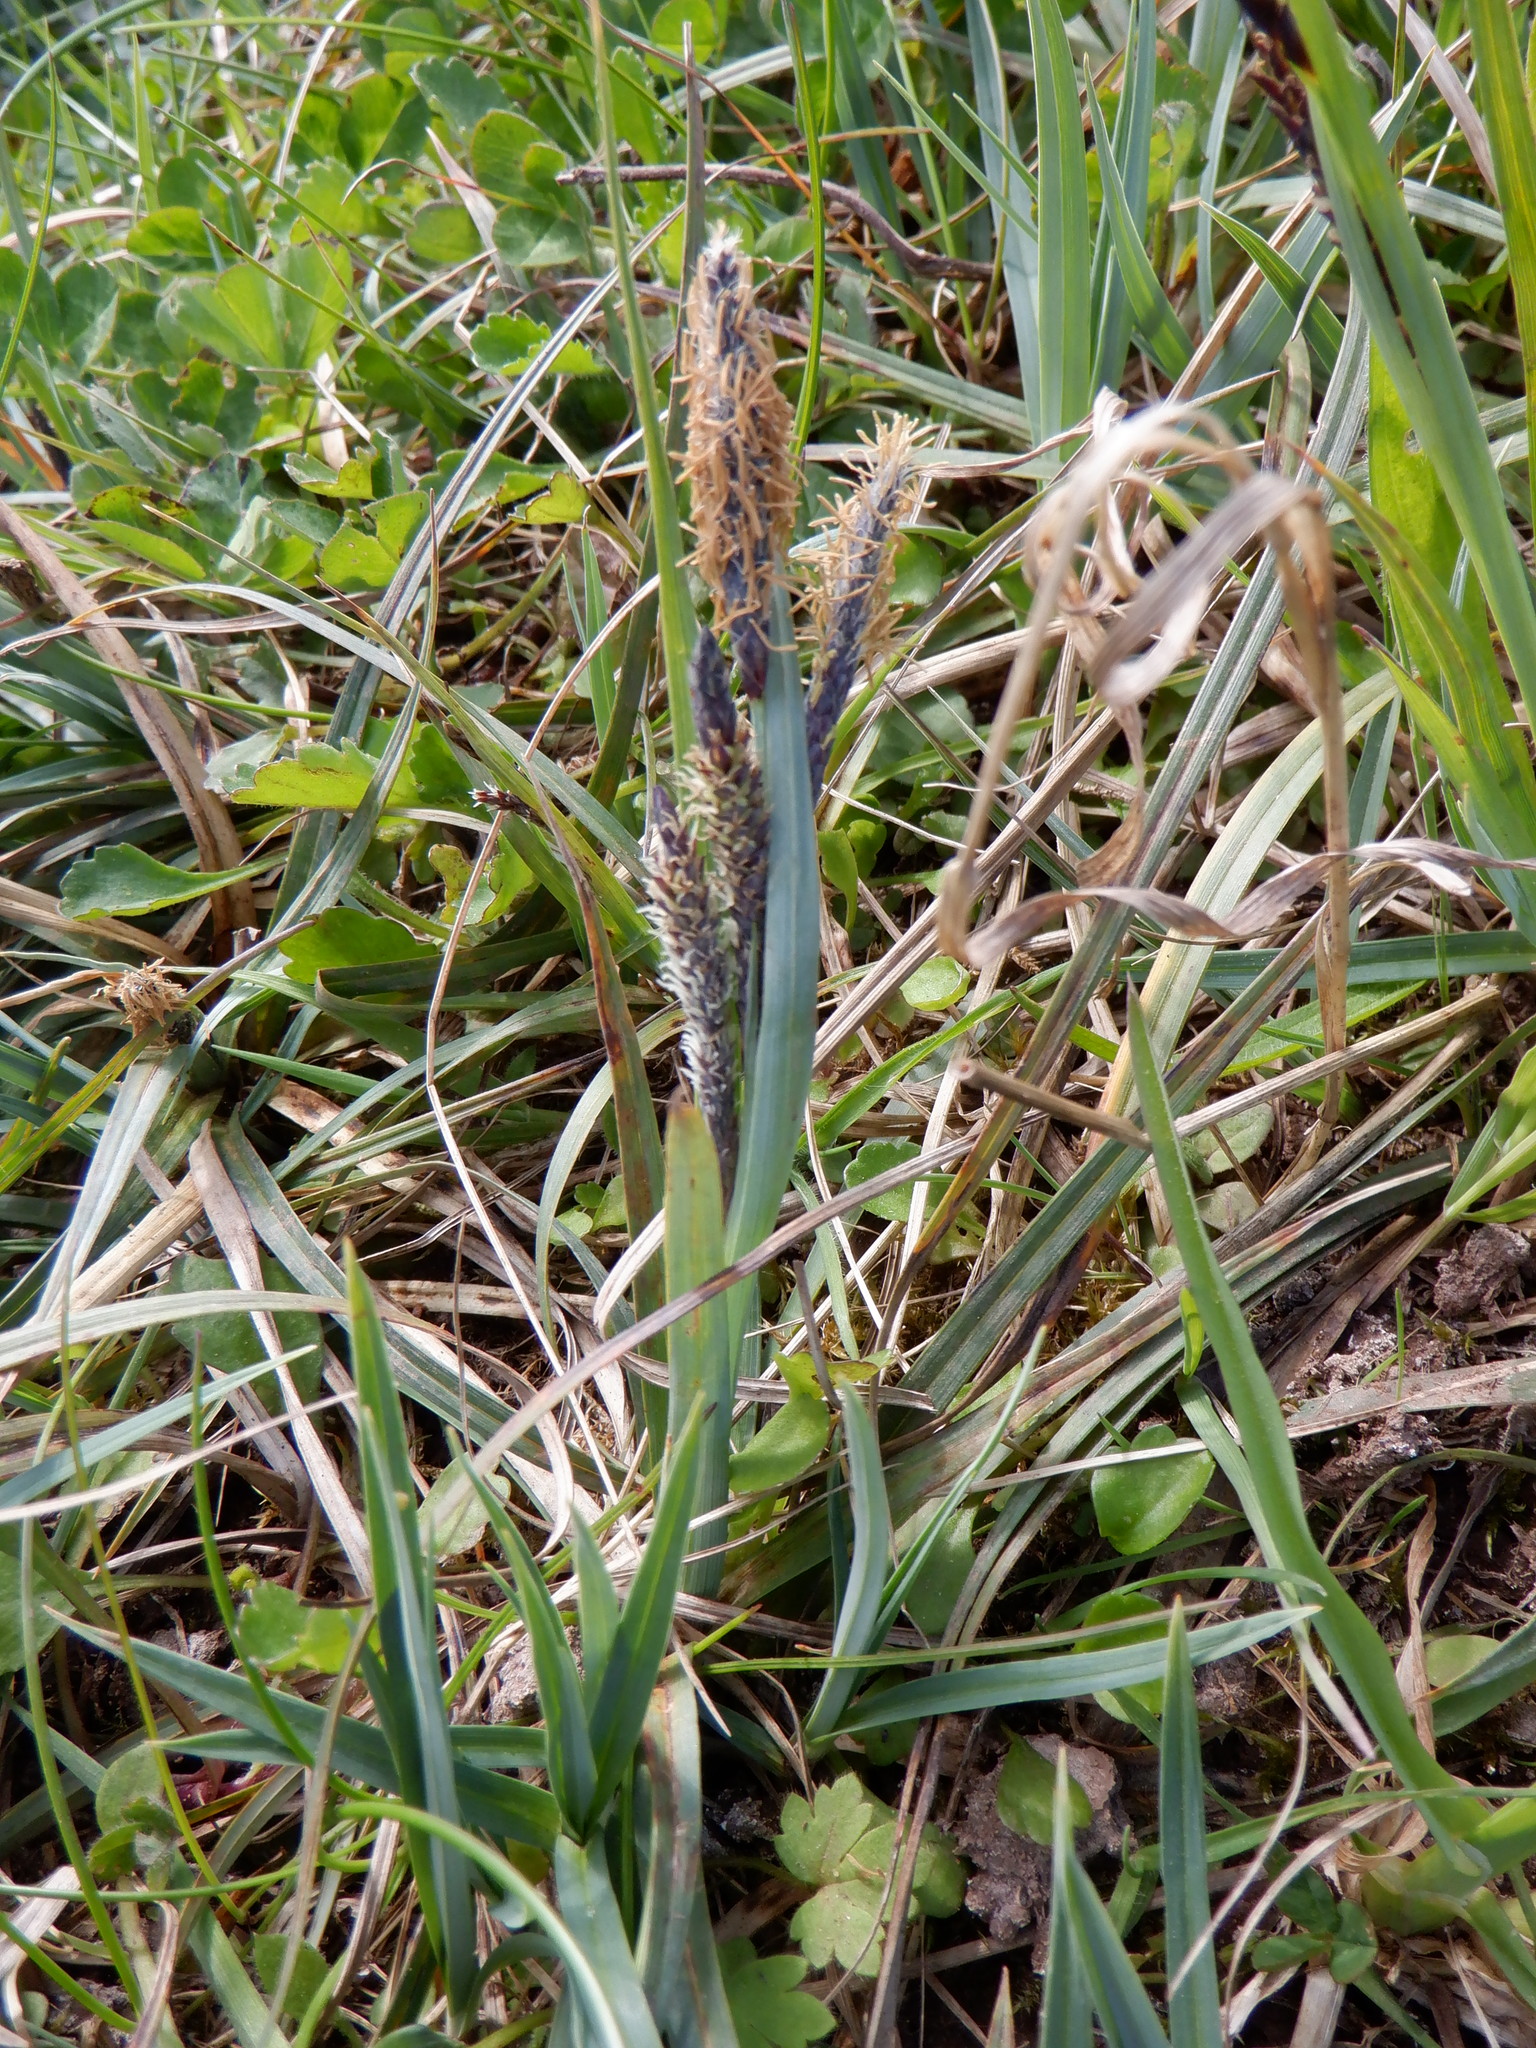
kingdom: Plantae
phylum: Tracheophyta
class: Liliopsida
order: Poales
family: Poaceae
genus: Anthoxanthum
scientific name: Anthoxanthum odoratum
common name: Sweet vernalgrass
